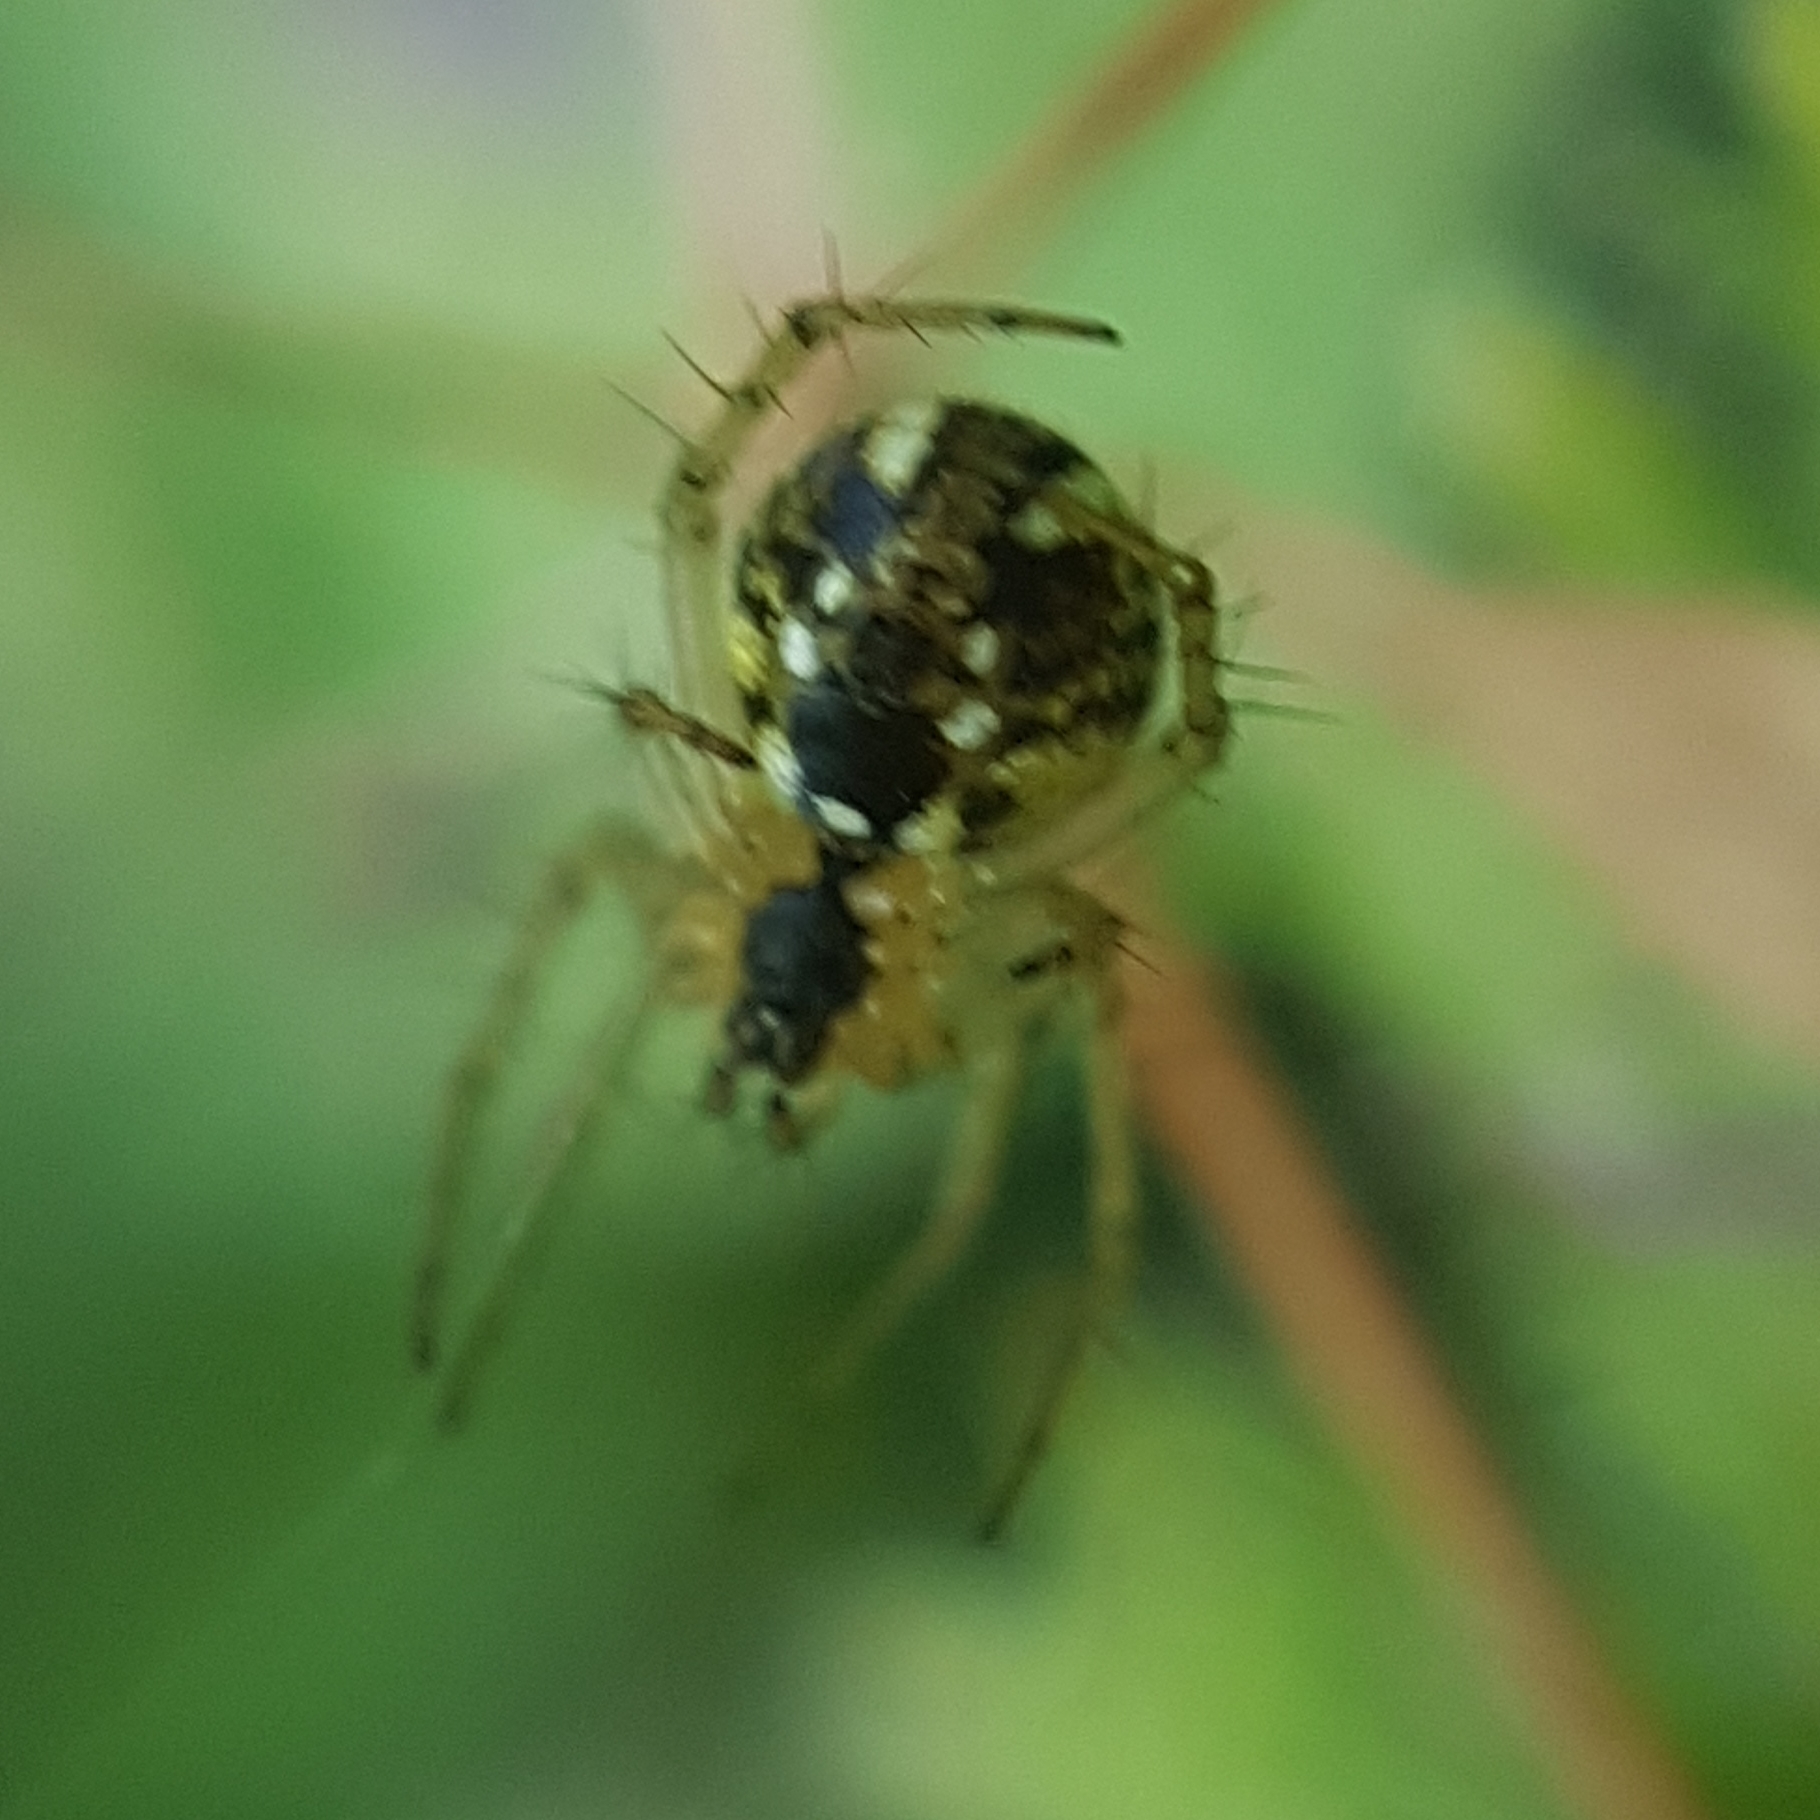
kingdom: Animalia
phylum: Arthropoda
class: Arachnida
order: Araneae
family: Araneidae
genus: Mangora
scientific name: Mangora acalypha
